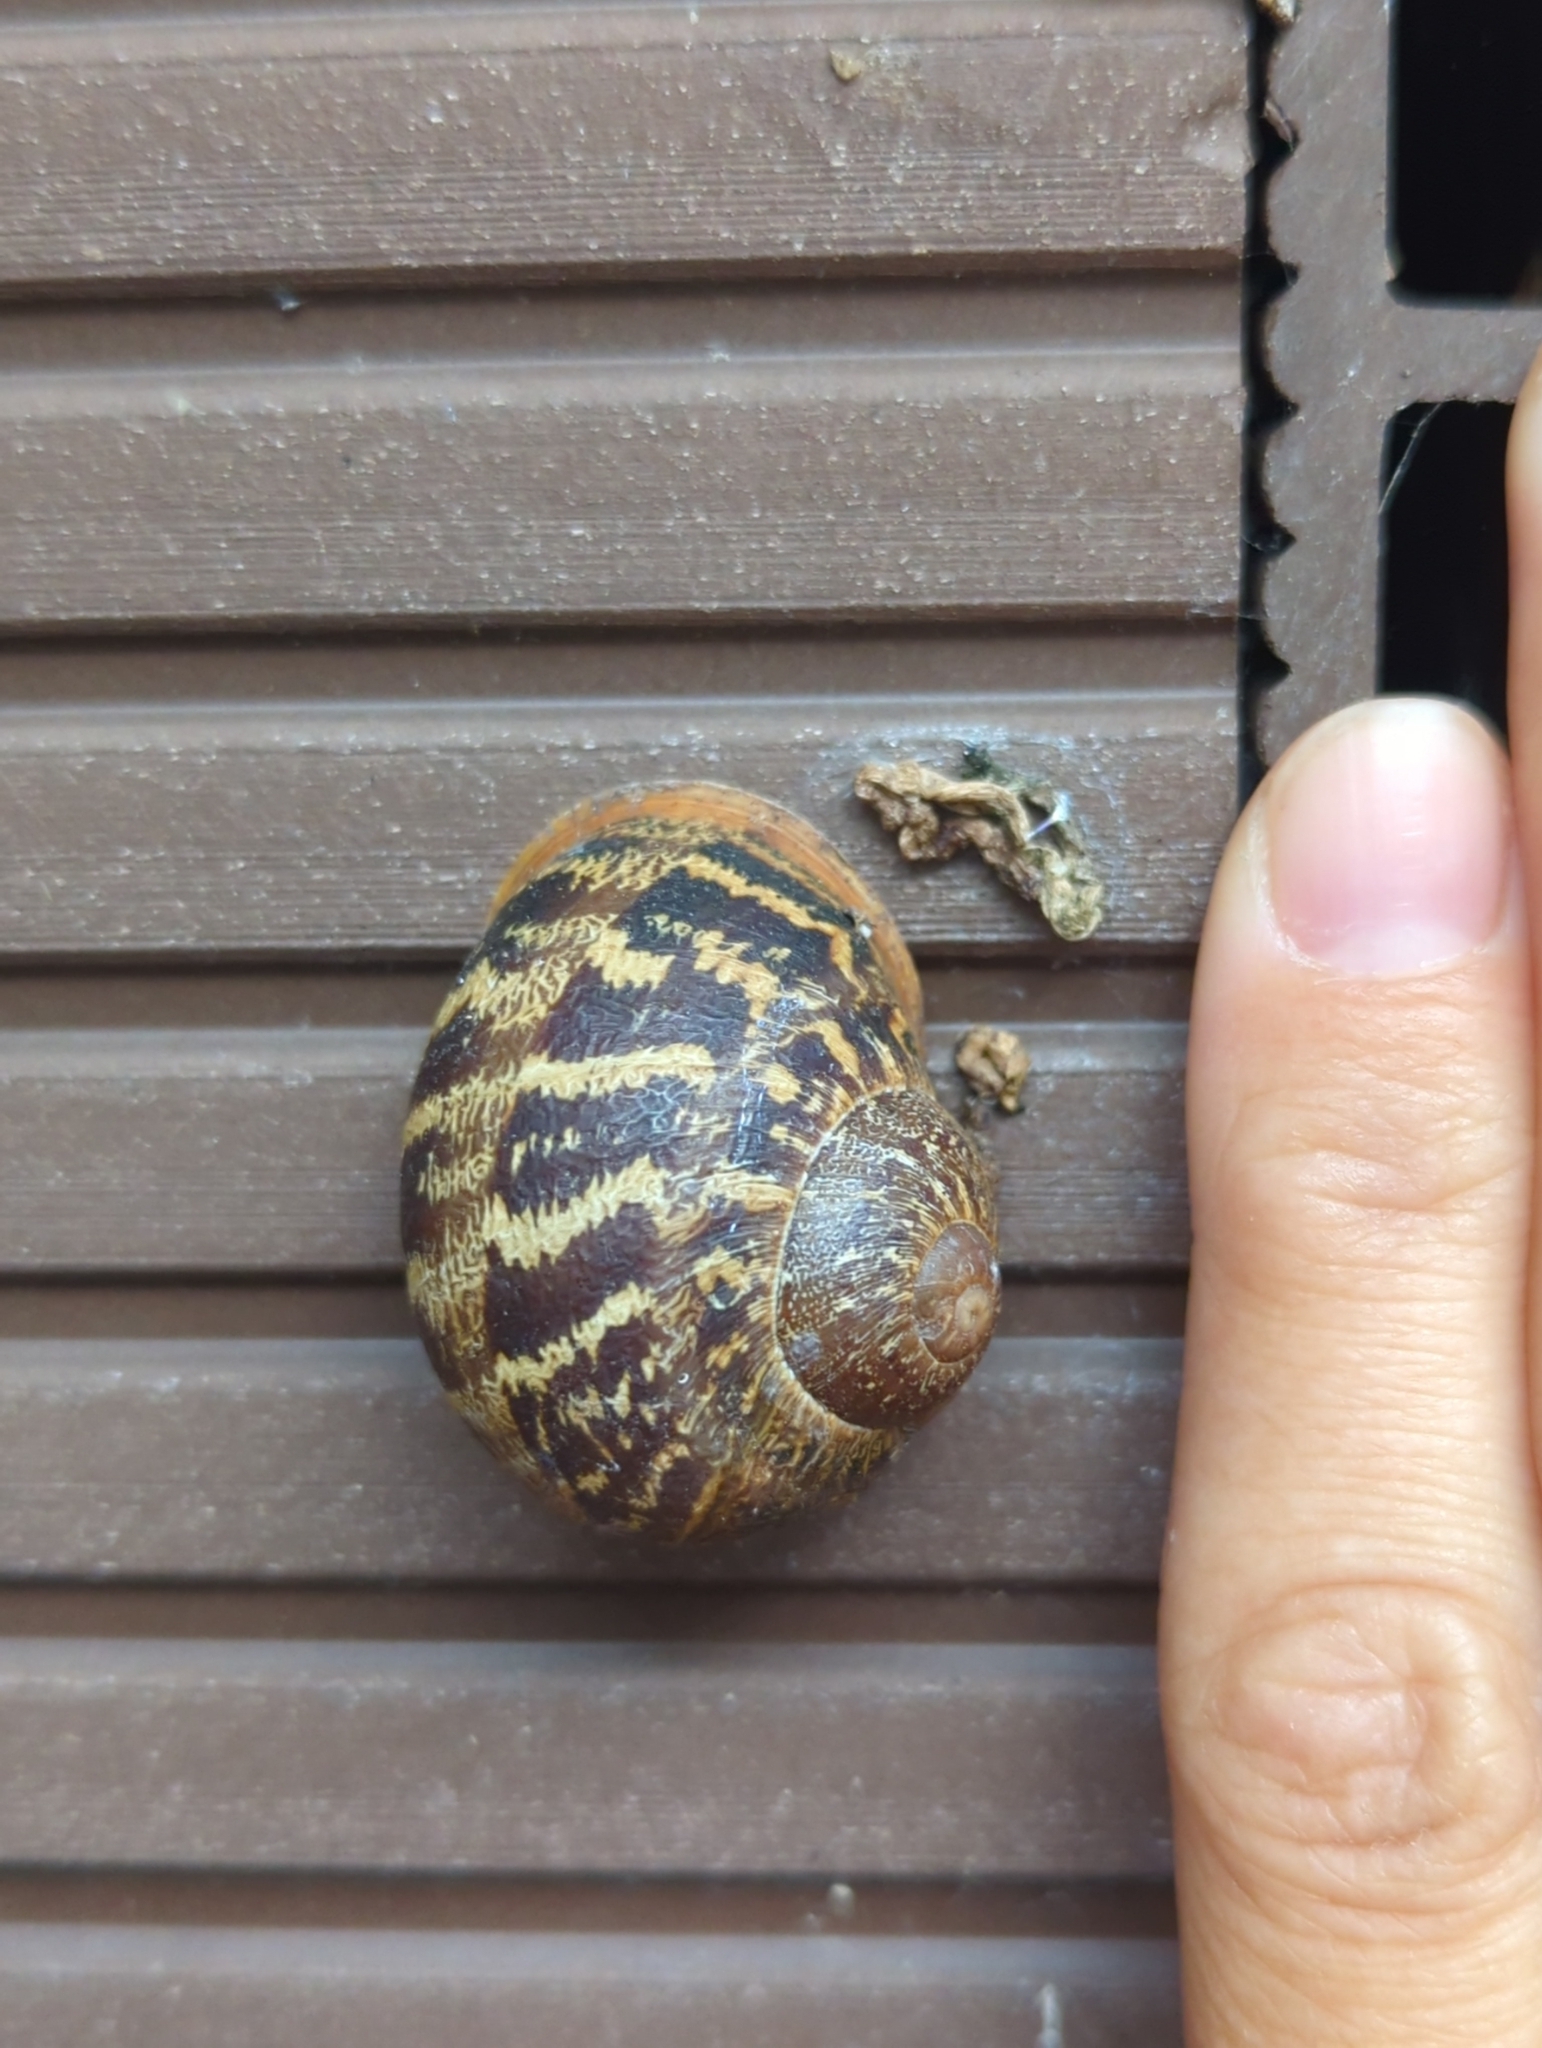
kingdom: Animalia
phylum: Mollusca
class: Gastropoda
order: Stylommatophora
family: Helicidae
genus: Cornu
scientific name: Cornu aspersum
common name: Brown garden snail
